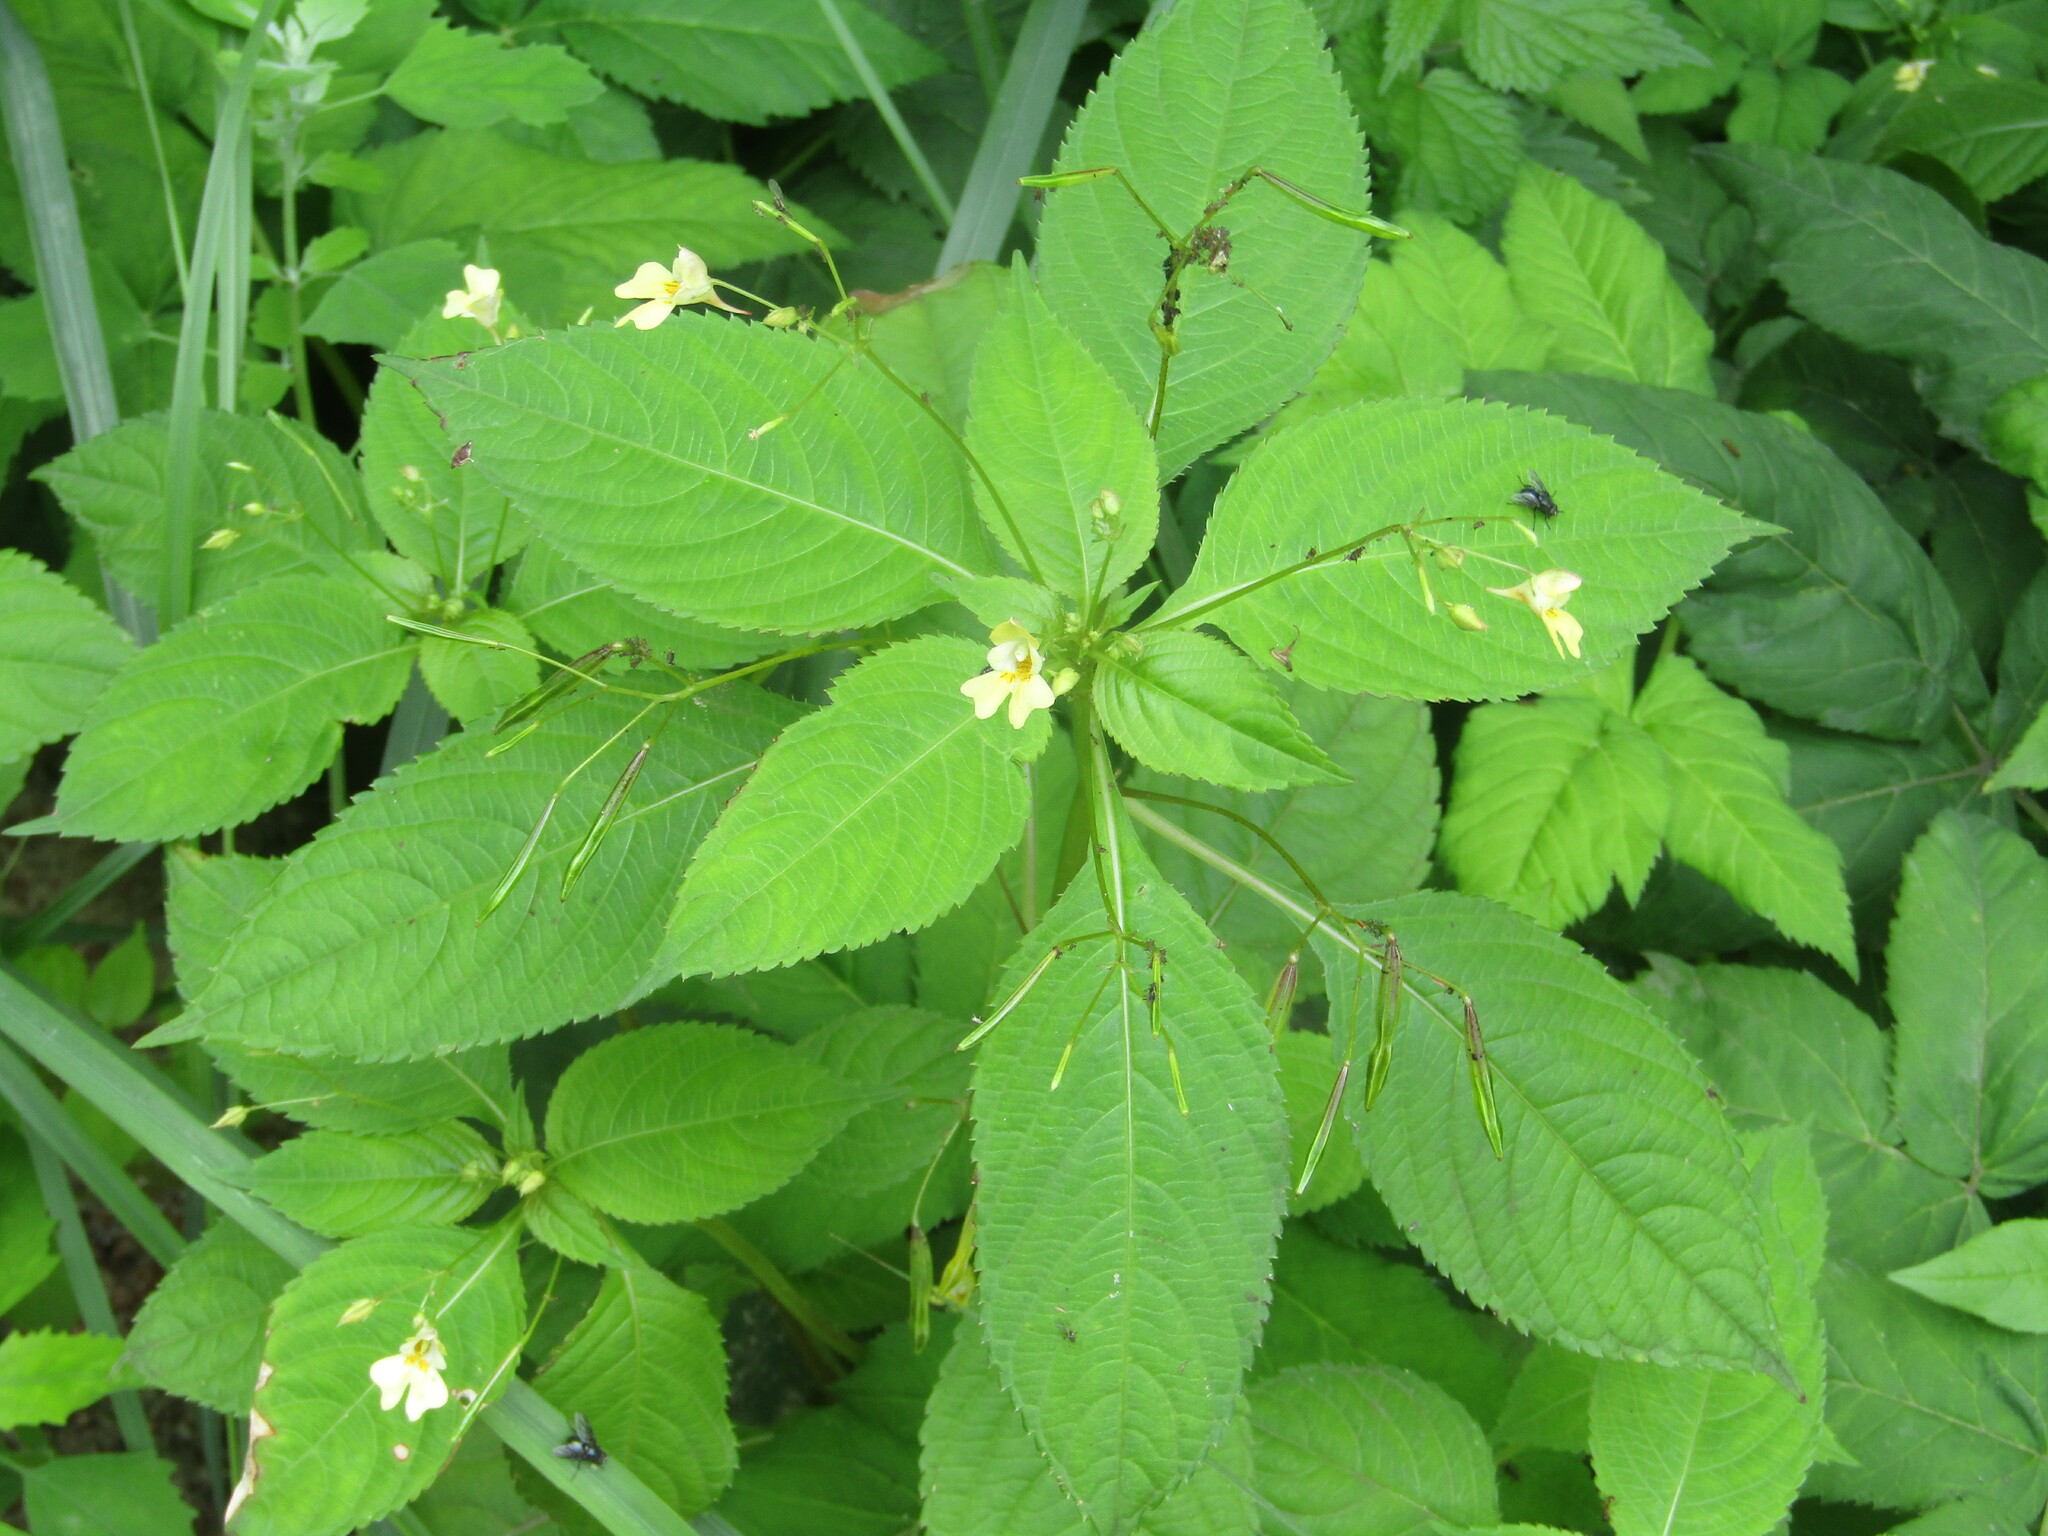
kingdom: Plantae
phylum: Tracheophyta
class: Magnoliopsida
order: Ericales
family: Balsaminaceae
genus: Impatiens
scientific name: Impatiens parviflora
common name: Small balsam
